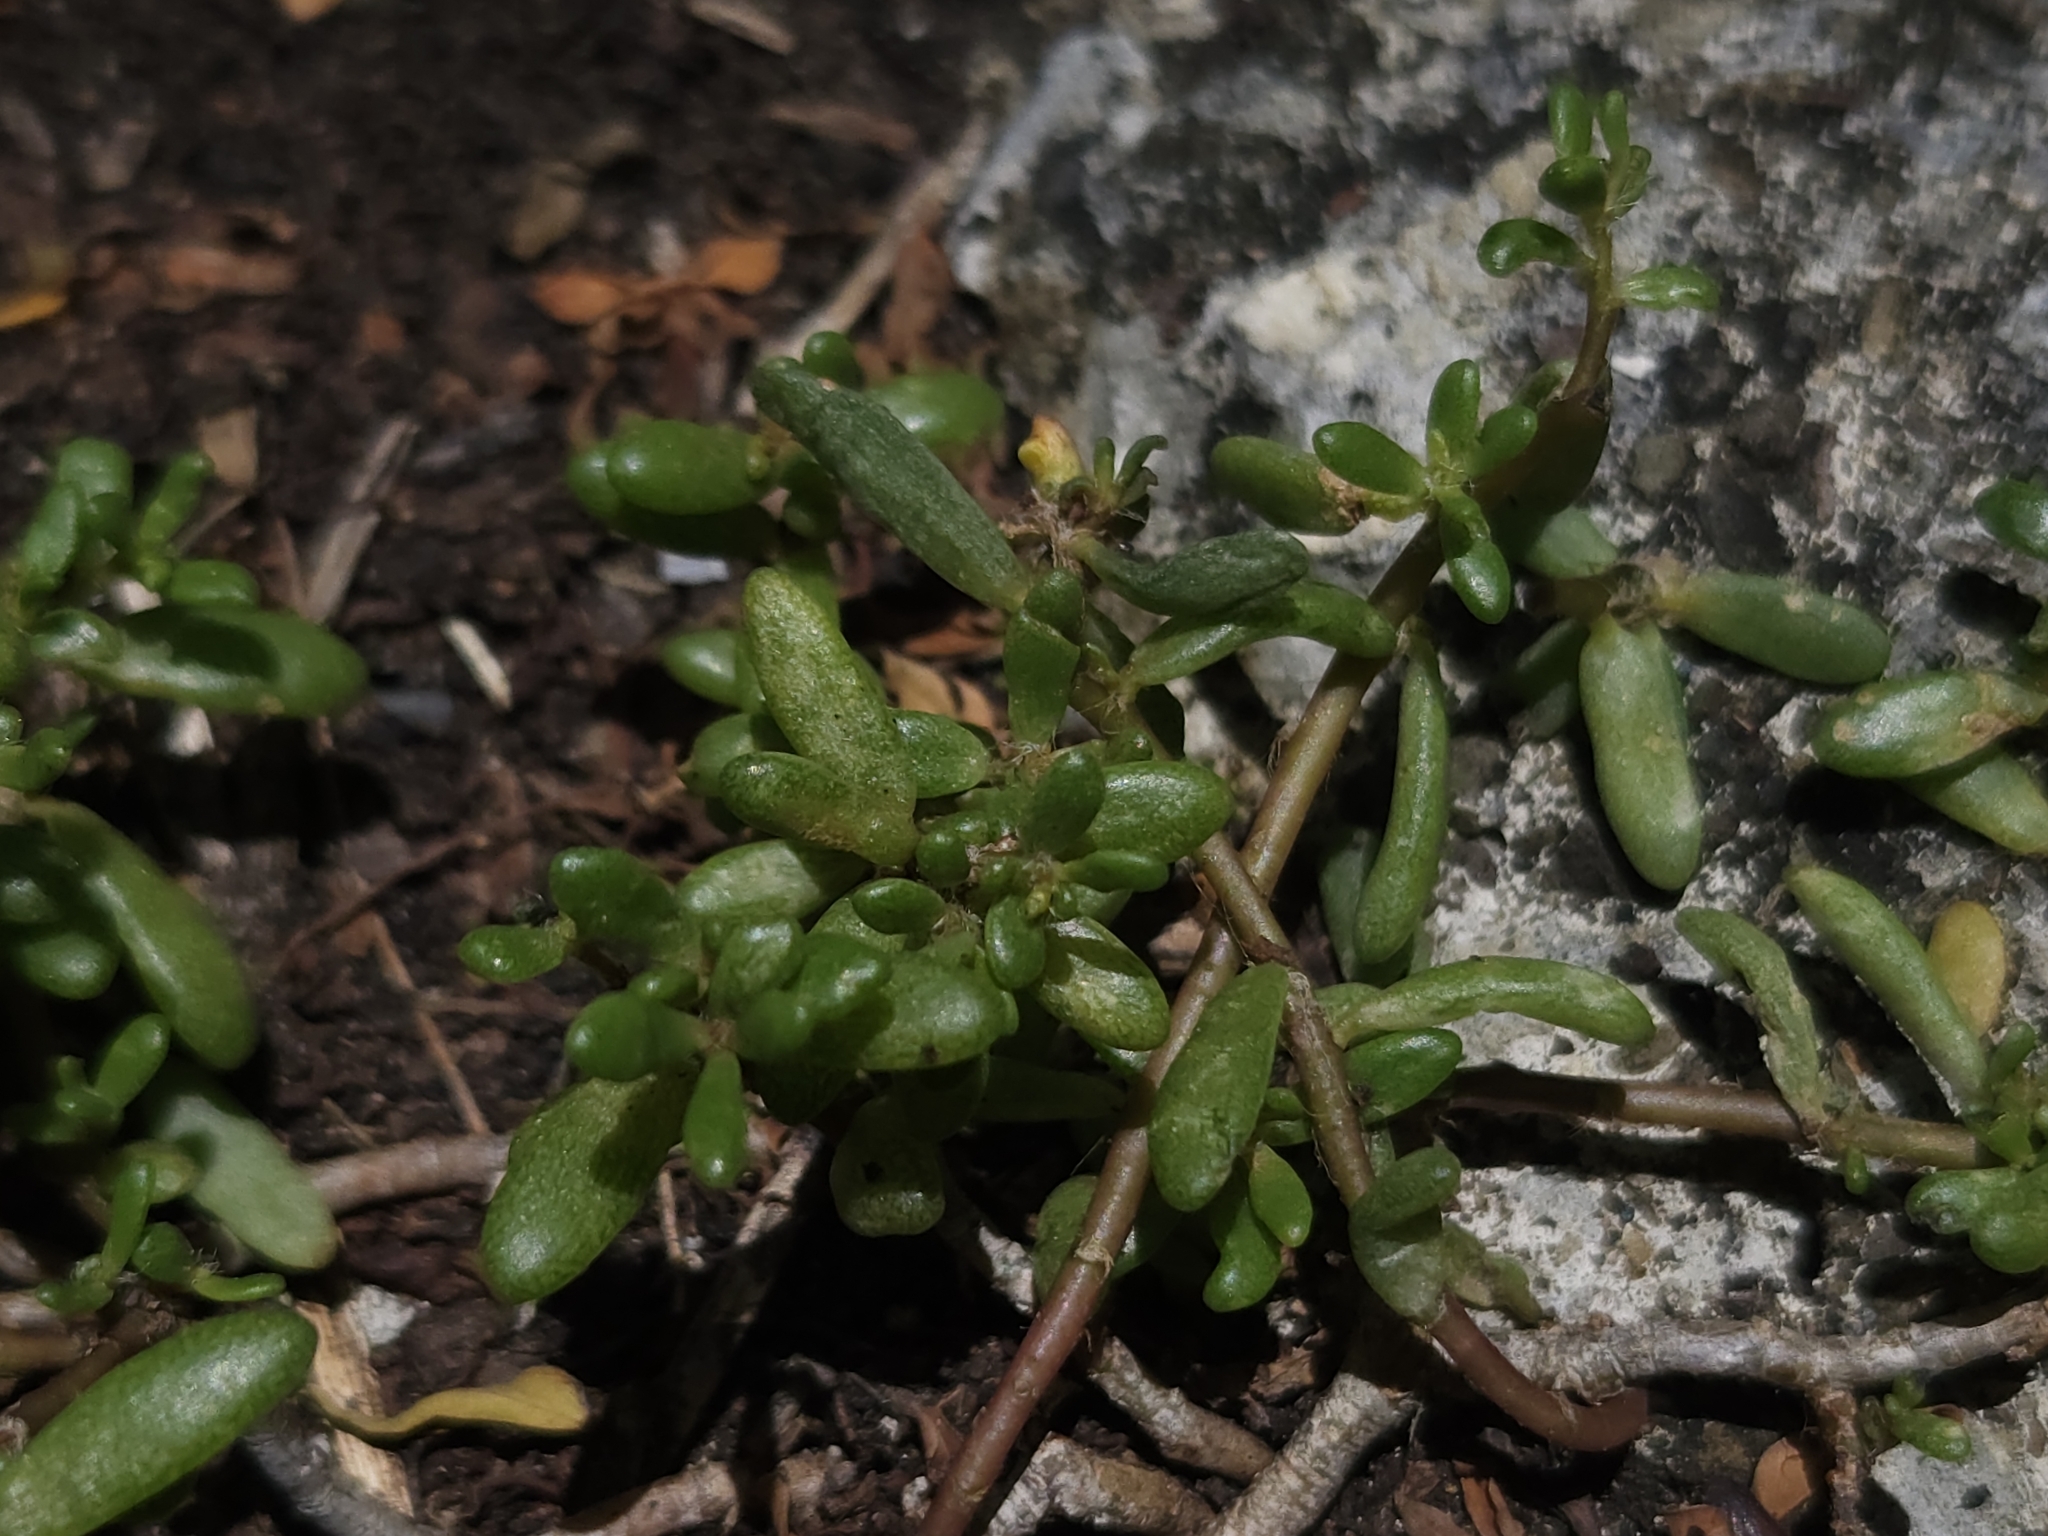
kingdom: Plantae
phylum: Tracheophyta
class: Magnoliopsida
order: Caryophyllales
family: Portulacaceae
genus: Portulaca
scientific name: Portulaca psammotropha
